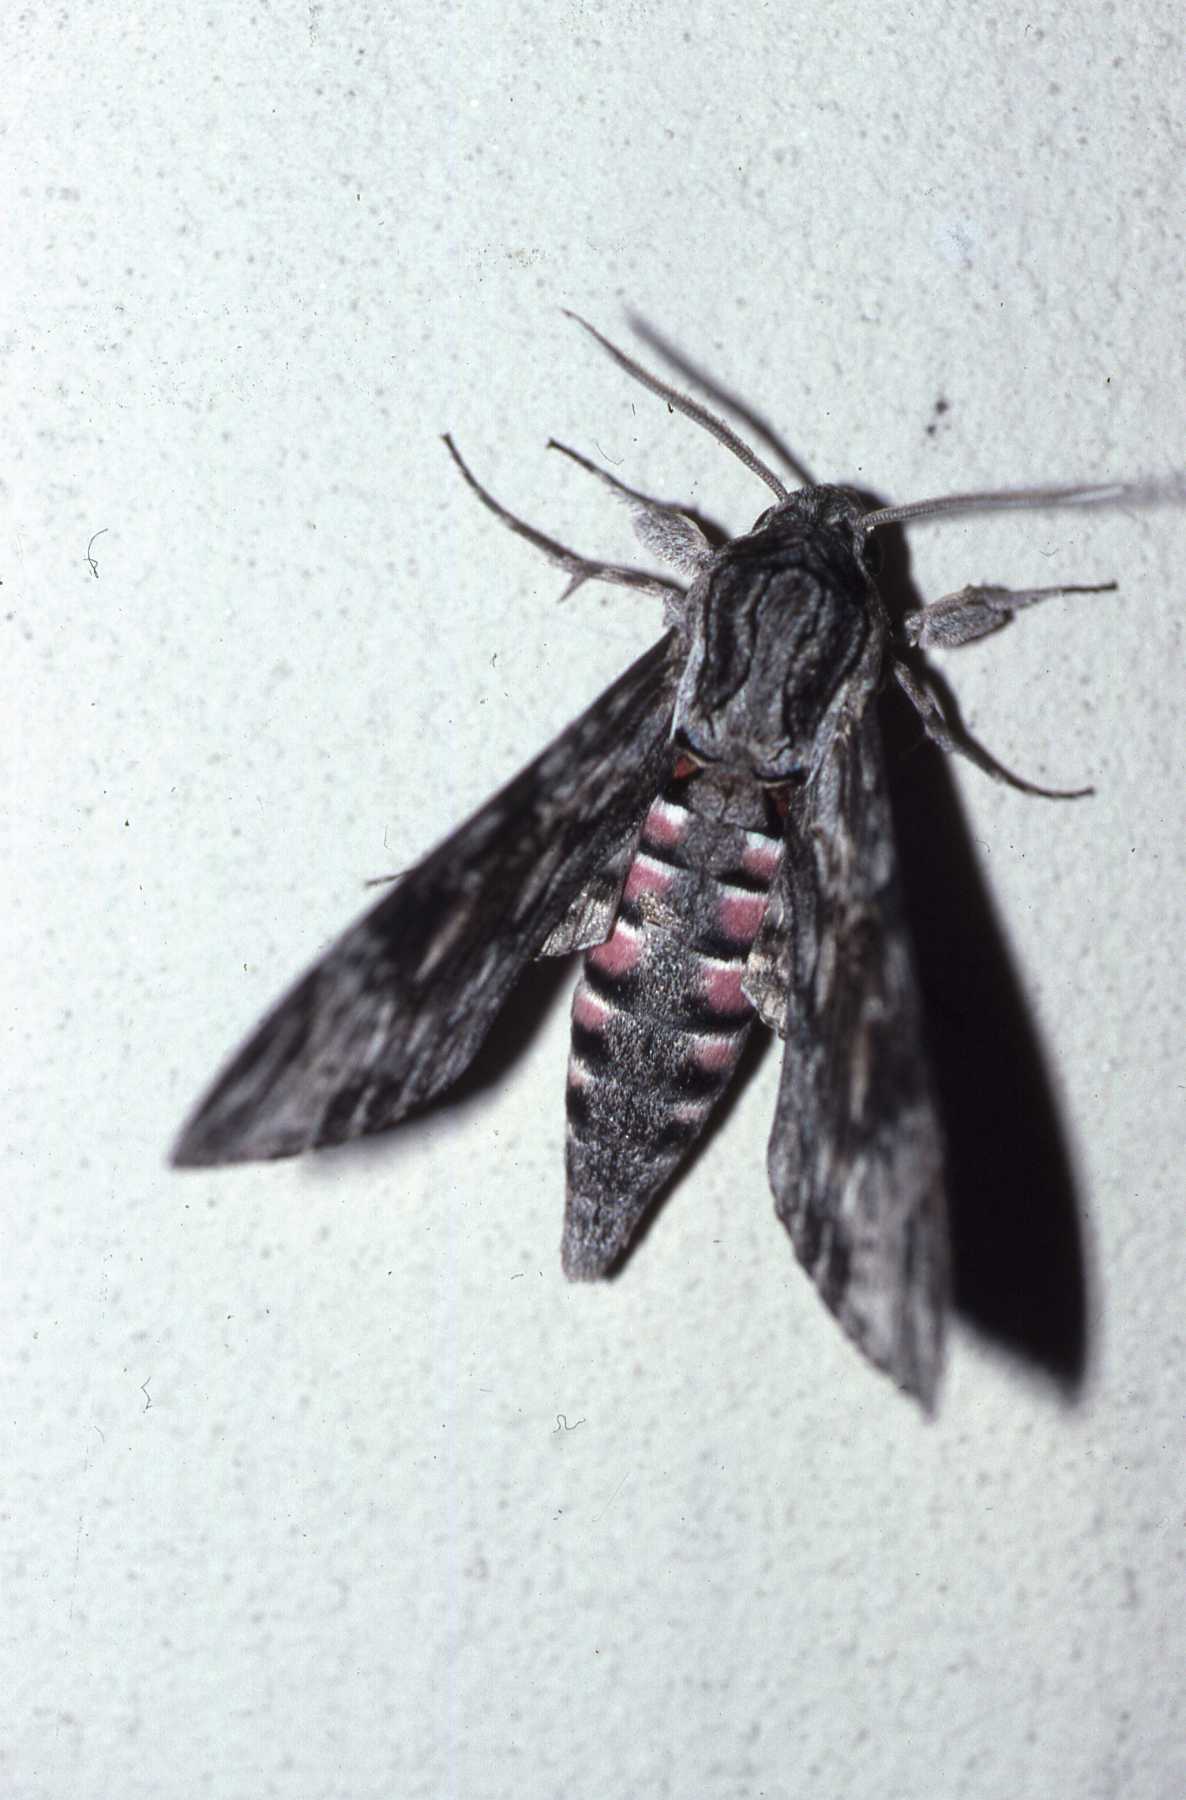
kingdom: Animalia
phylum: Arthropoda
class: Insecta
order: Lepidoptera
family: Sphingidae
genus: Agrius
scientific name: Agrius convolvuli
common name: Convolvulus hawkmoth
